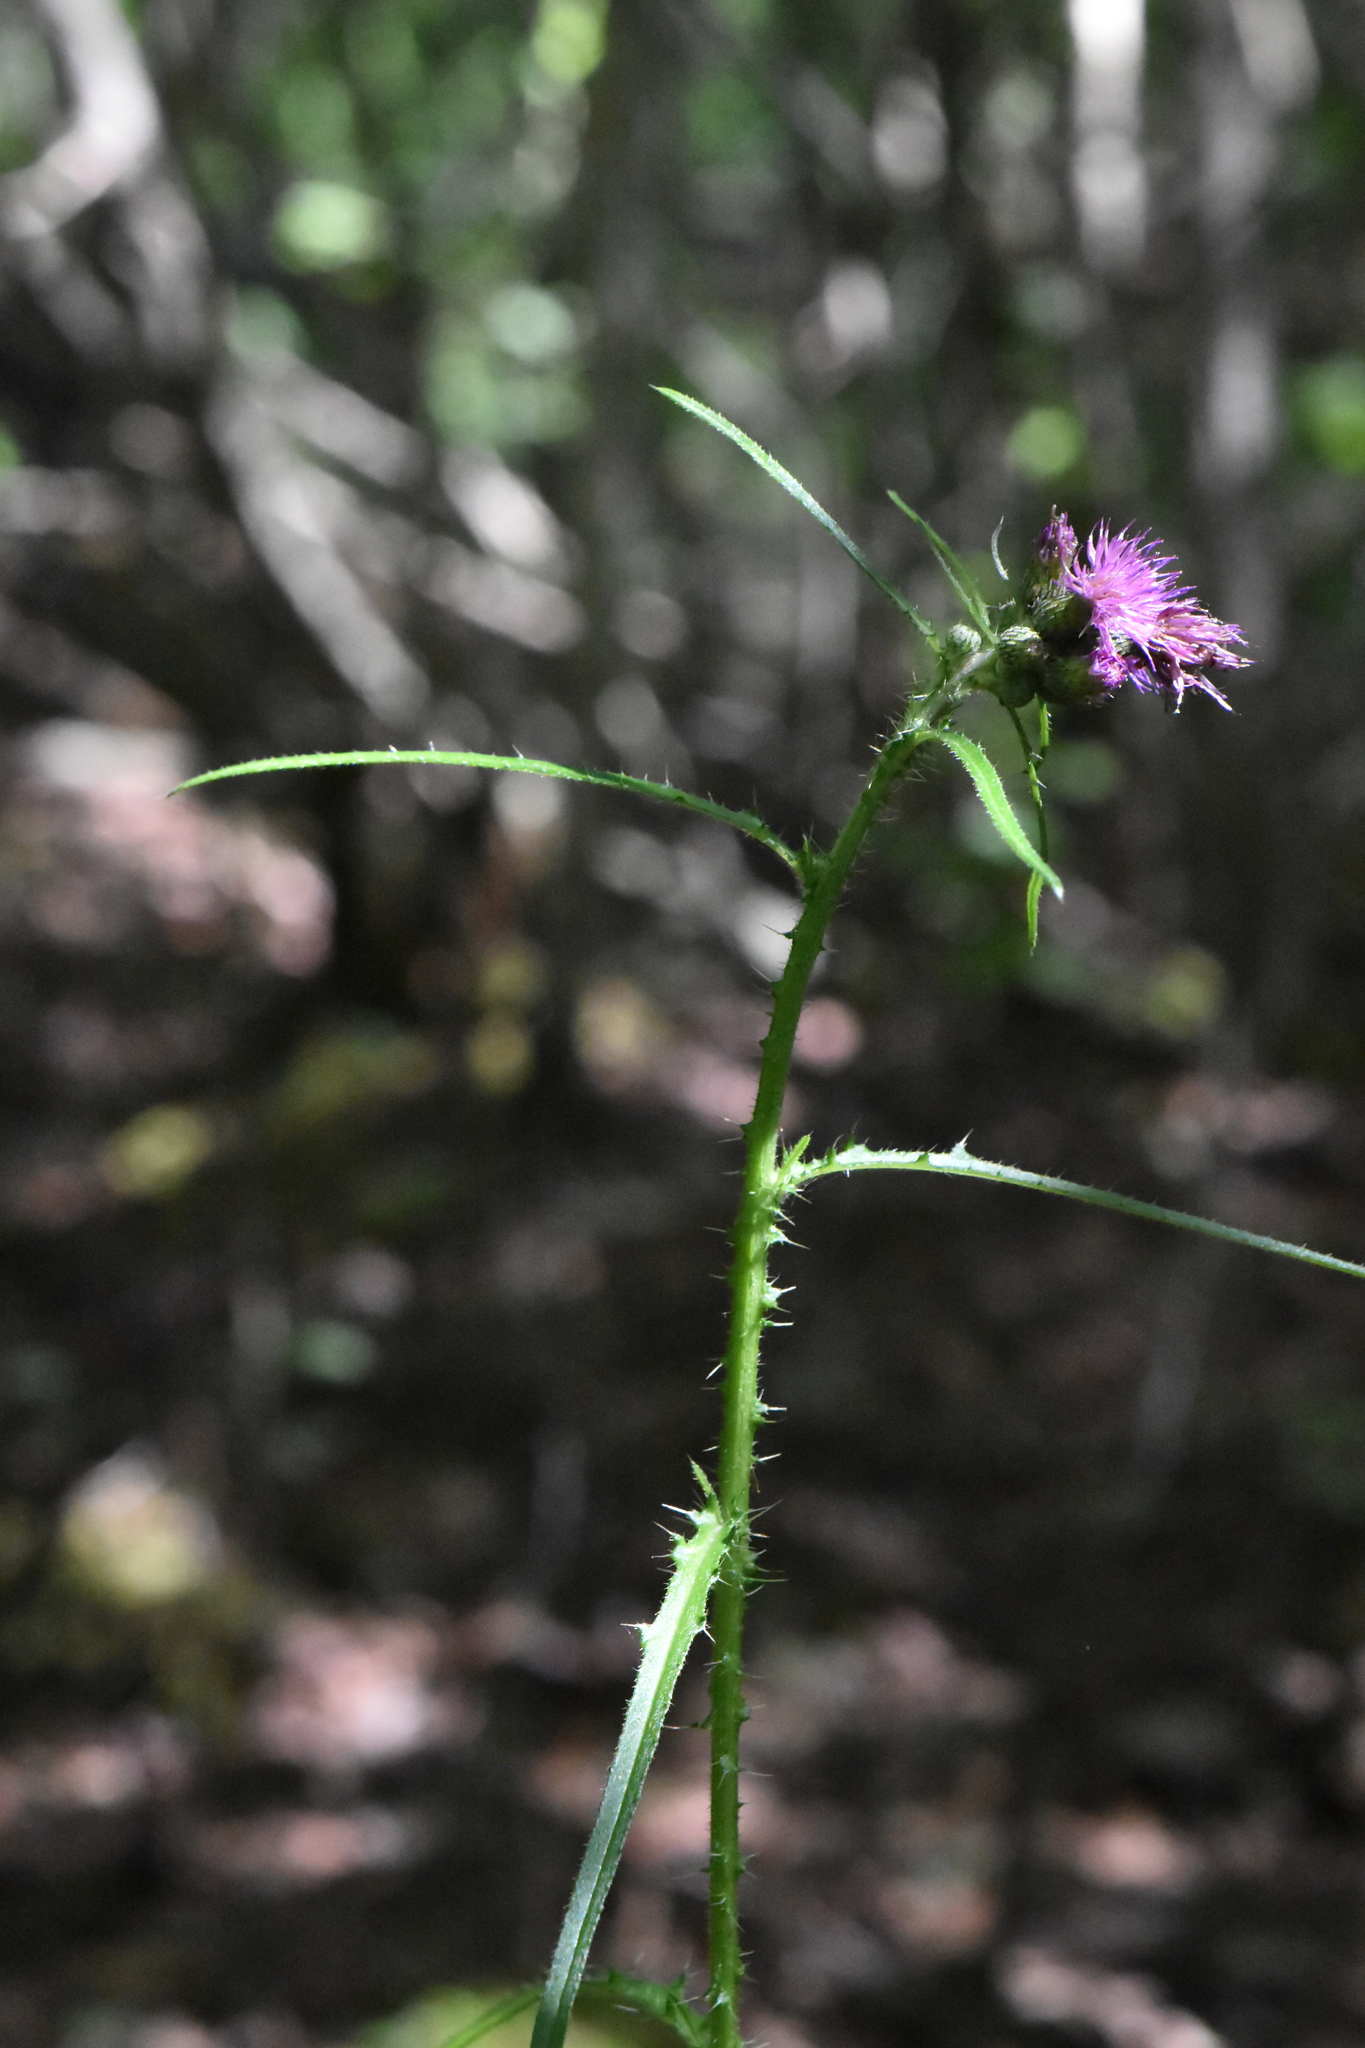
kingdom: Plantae
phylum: Tracheophyta
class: Magnoliopsida
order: Asterales
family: Asteraceae
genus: Cirsium
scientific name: Cirsium palustre
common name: Marsh thistle
